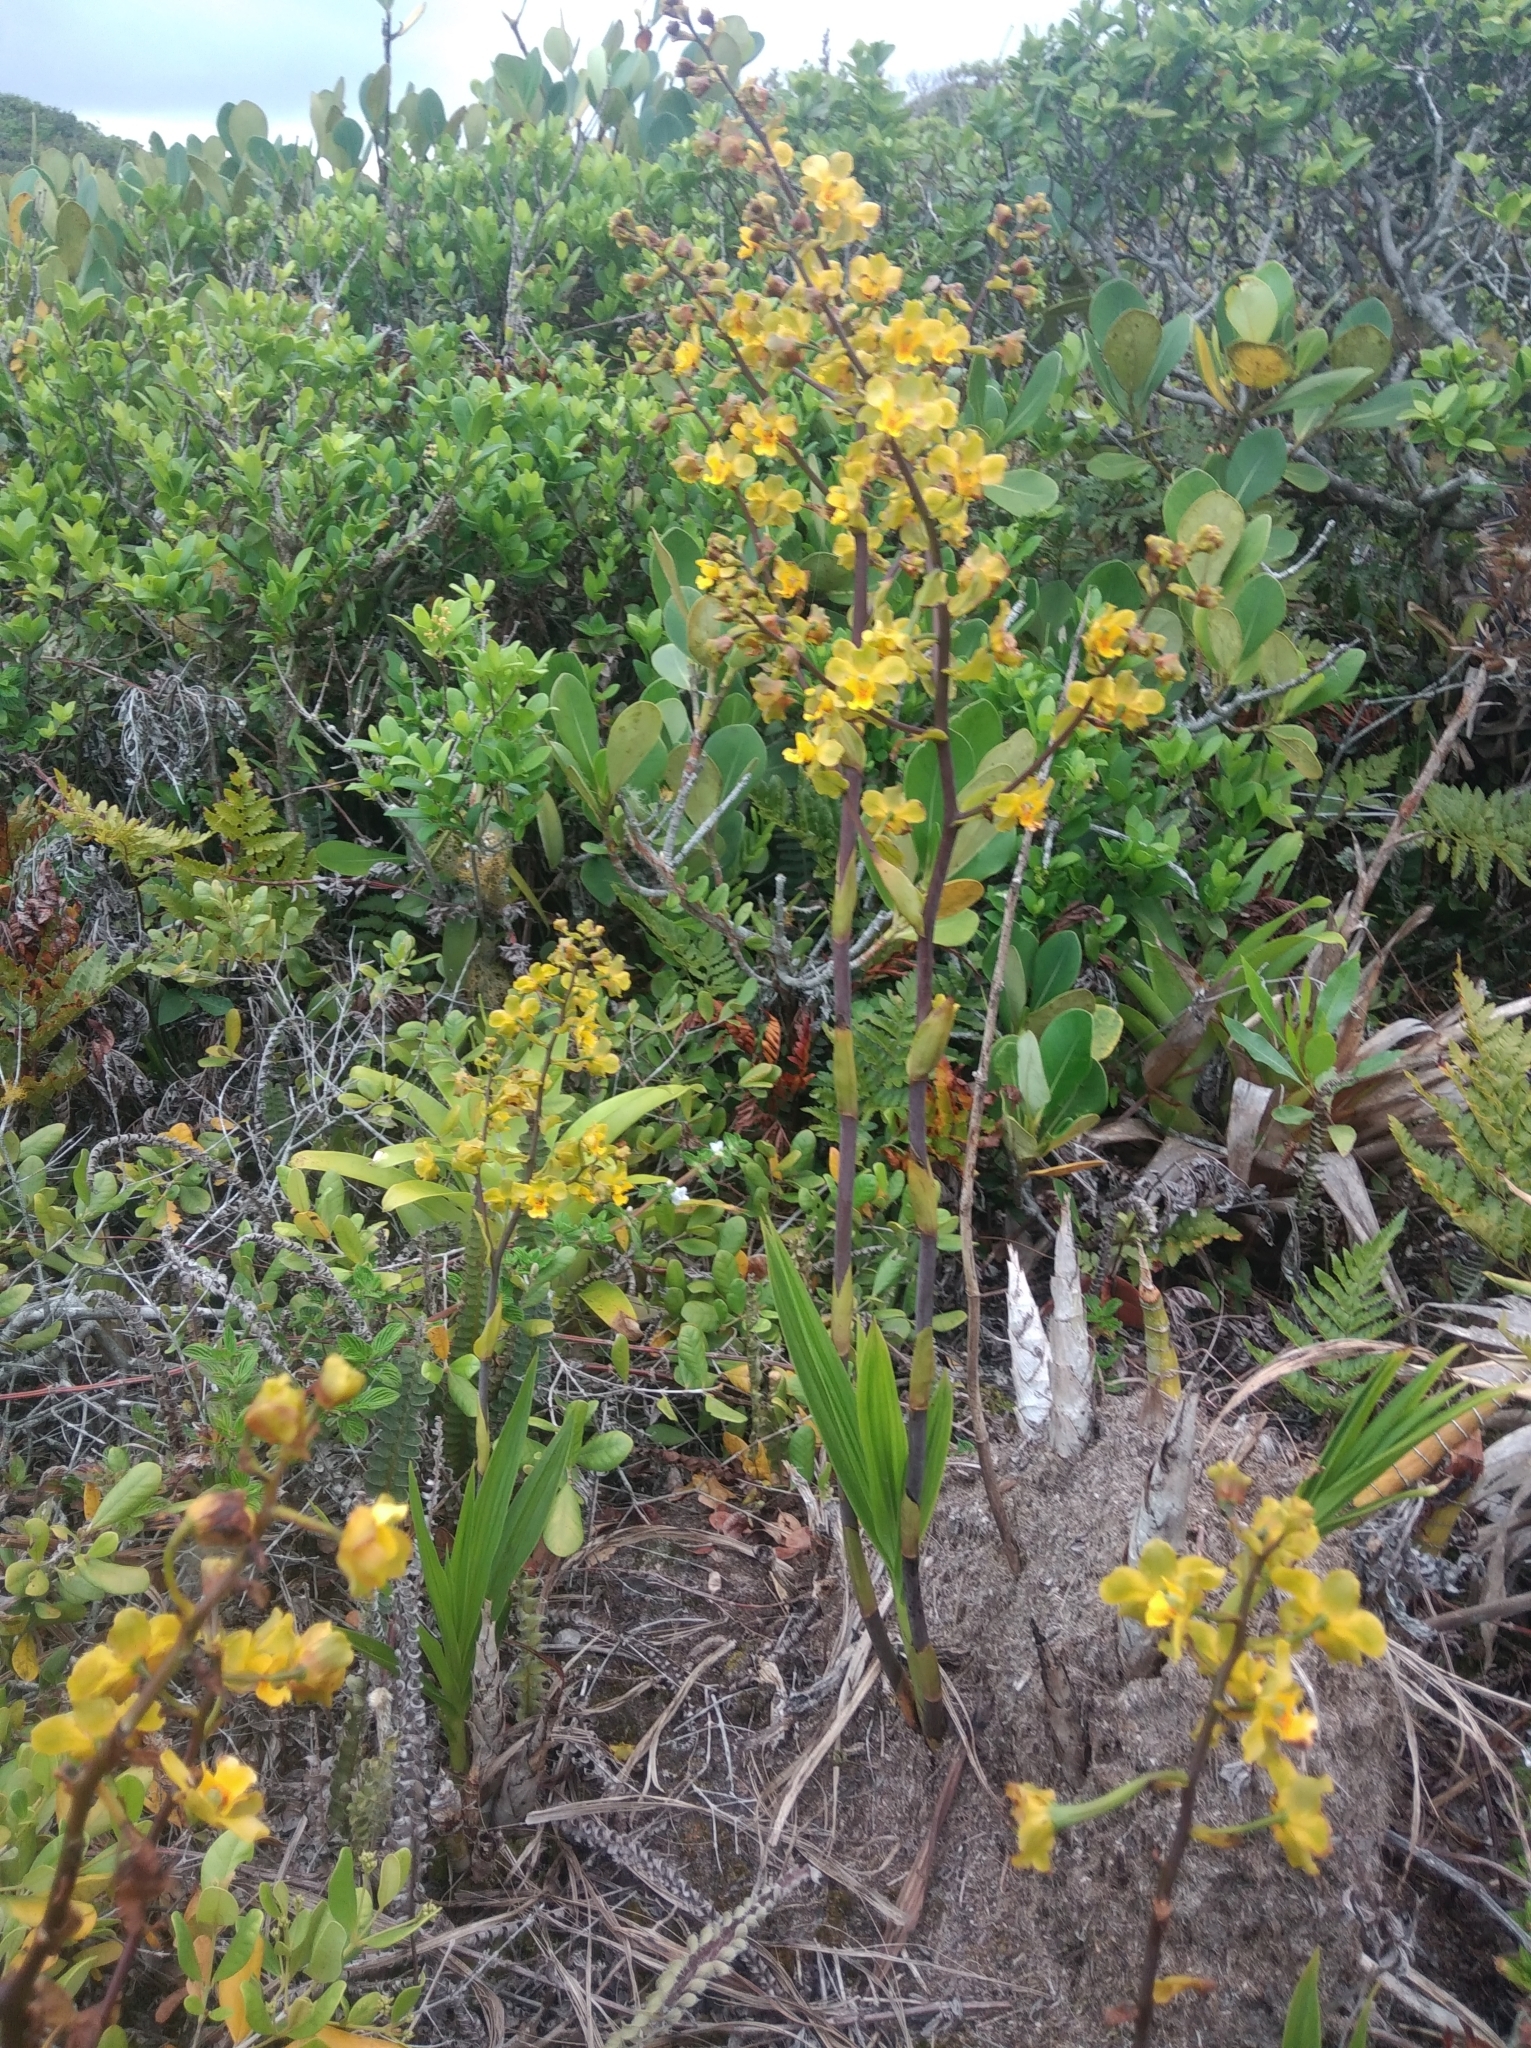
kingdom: Plantae
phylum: Tracheophyta
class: Liliopsida
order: Asparagales
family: Orchidaceae
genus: Cyrtopodium
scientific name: Cyrtopodium flavum
